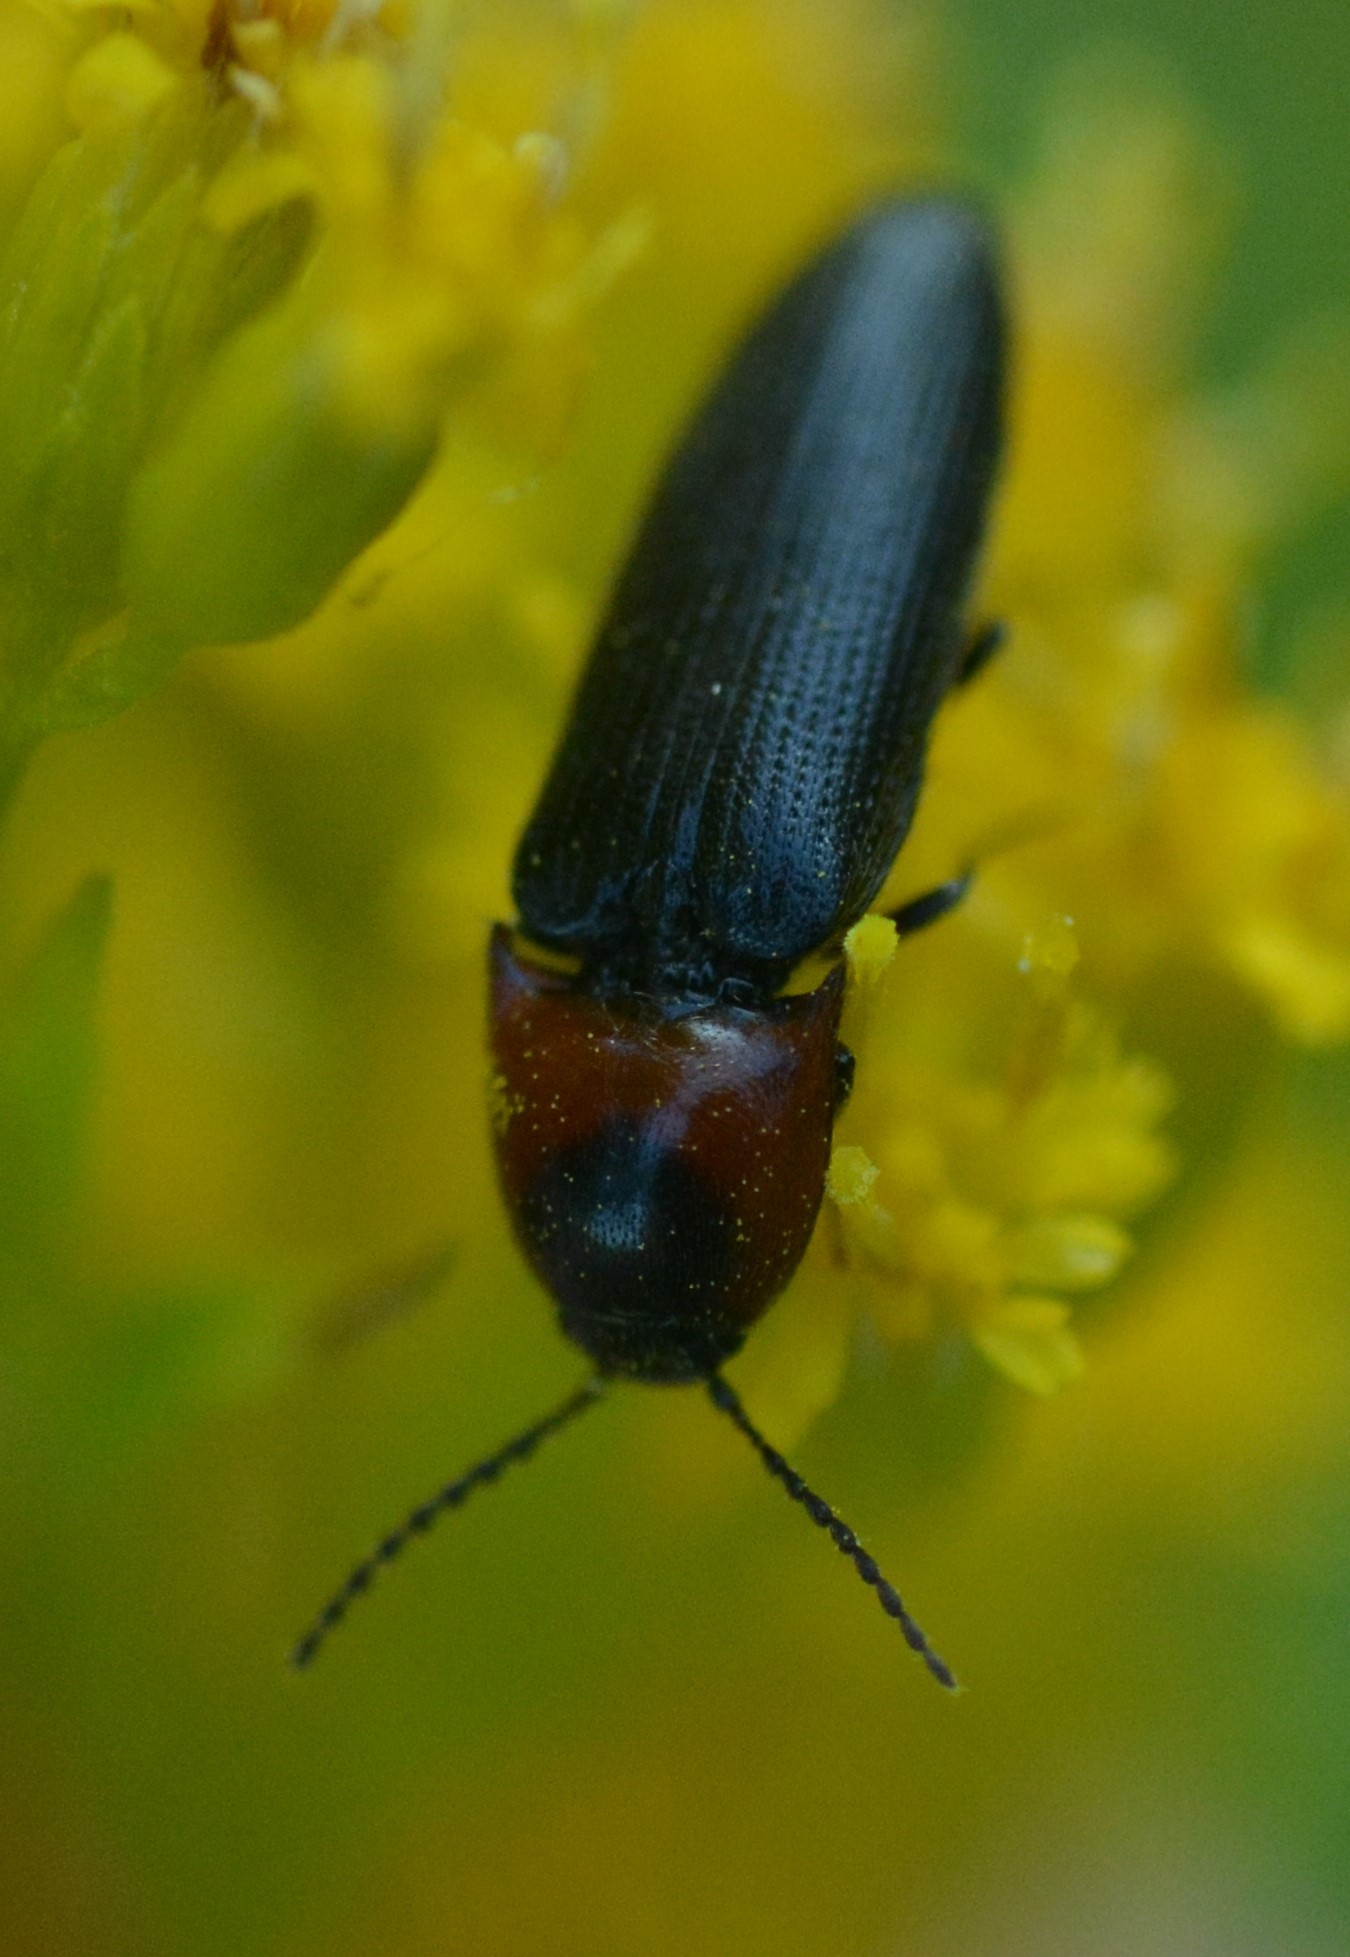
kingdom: Animalia
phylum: Arthropoda
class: Insecta
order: Coleoptera
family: Elateridae
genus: Ampedus
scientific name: Ampedus rubricus
